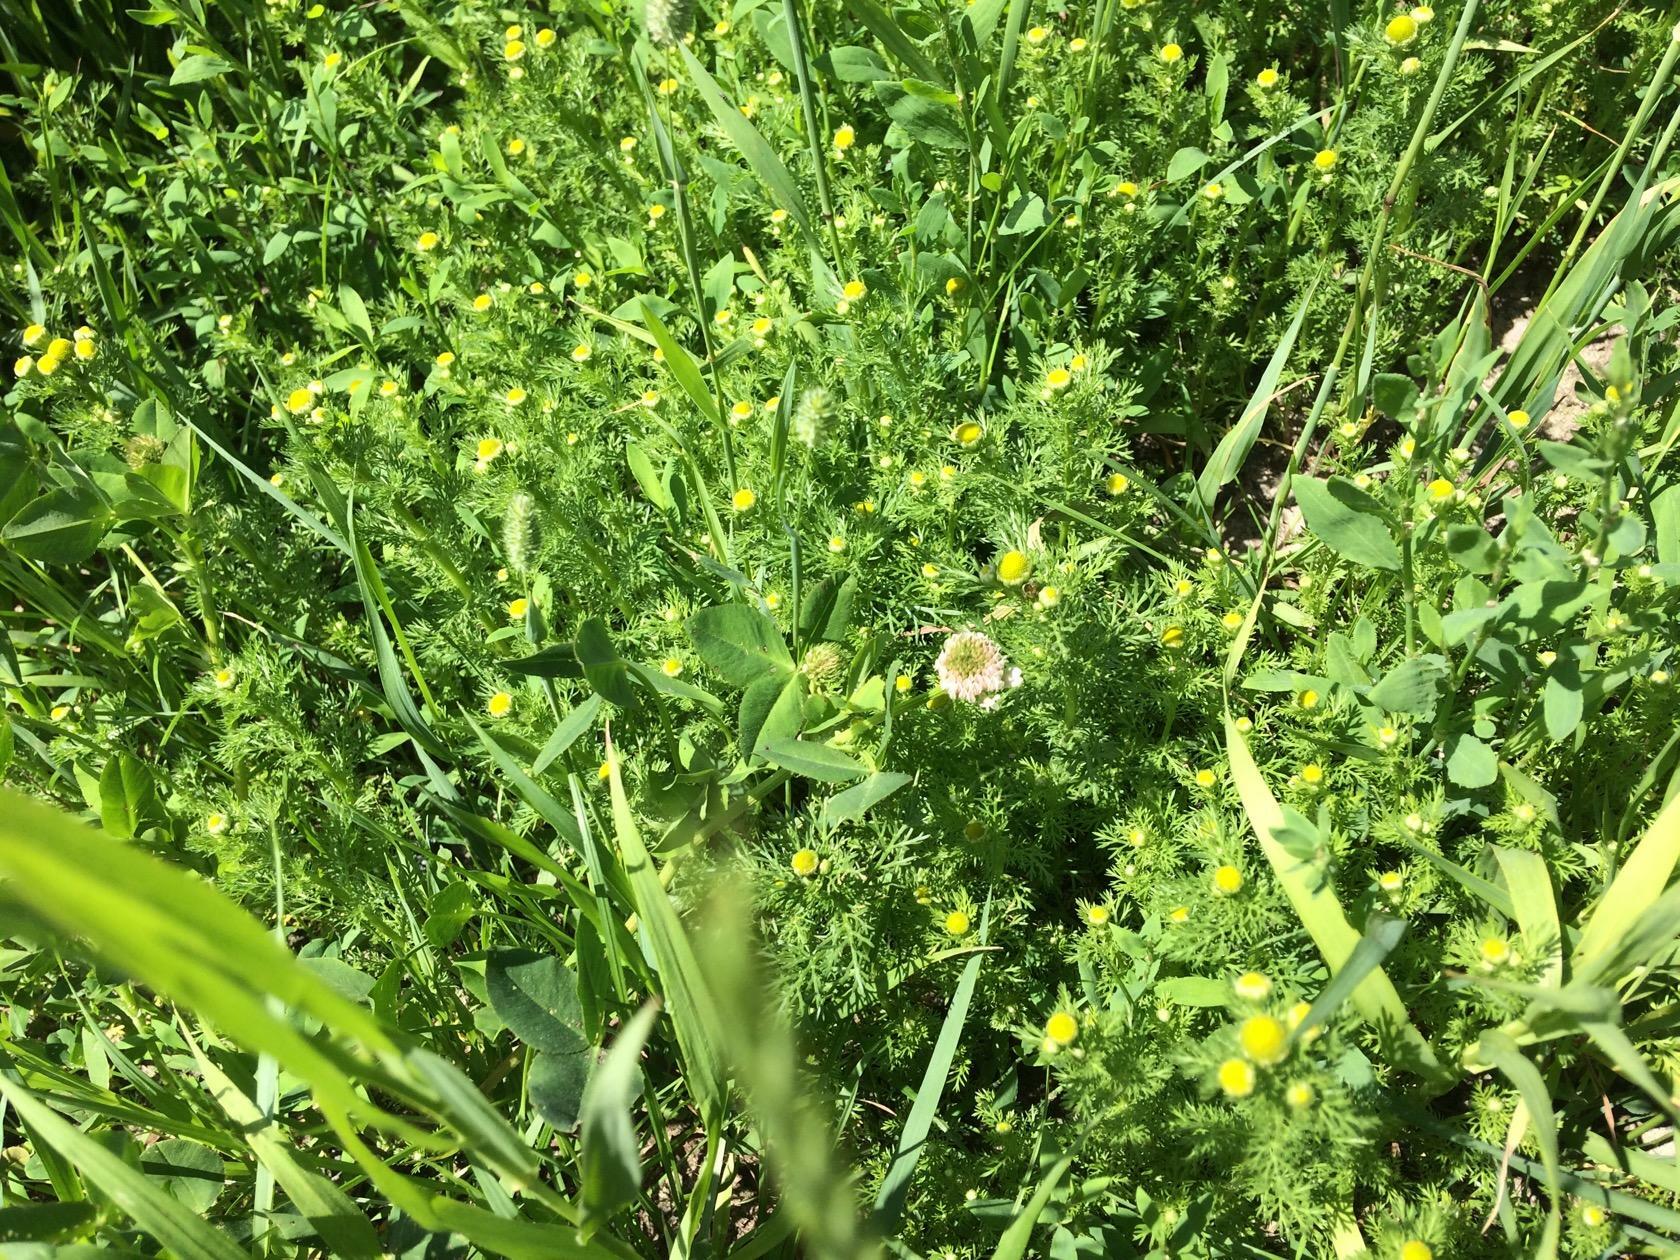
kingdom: Plantae
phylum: Tracheophyta
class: Magnoliopsida
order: Asterales
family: Asteraceae
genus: Matricaria
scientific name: Matricaria discoidea
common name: Disc mayweed
